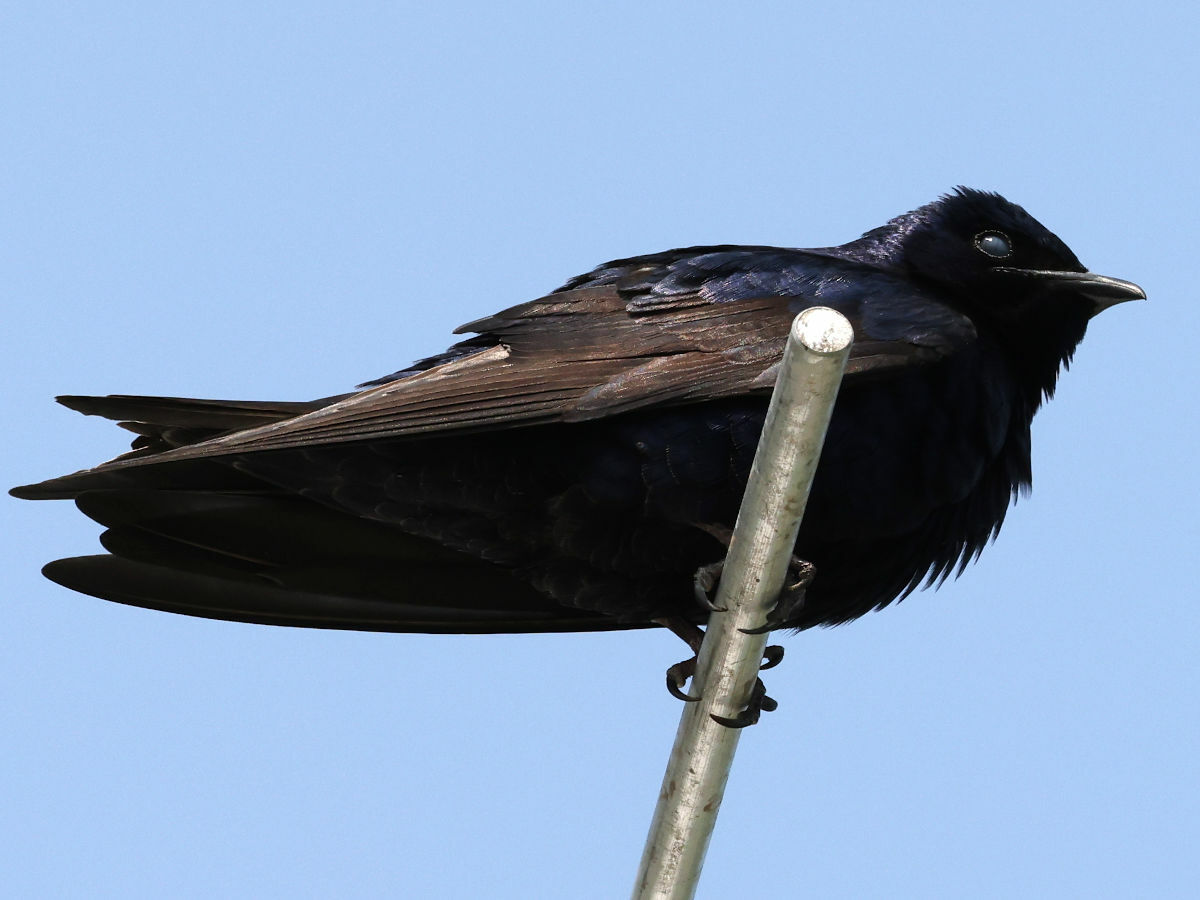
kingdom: Animalia
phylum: Chordata
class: Aves
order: Passeriformes
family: Hirundinidae
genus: Progne
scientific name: Progne subis
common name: Purple martin
